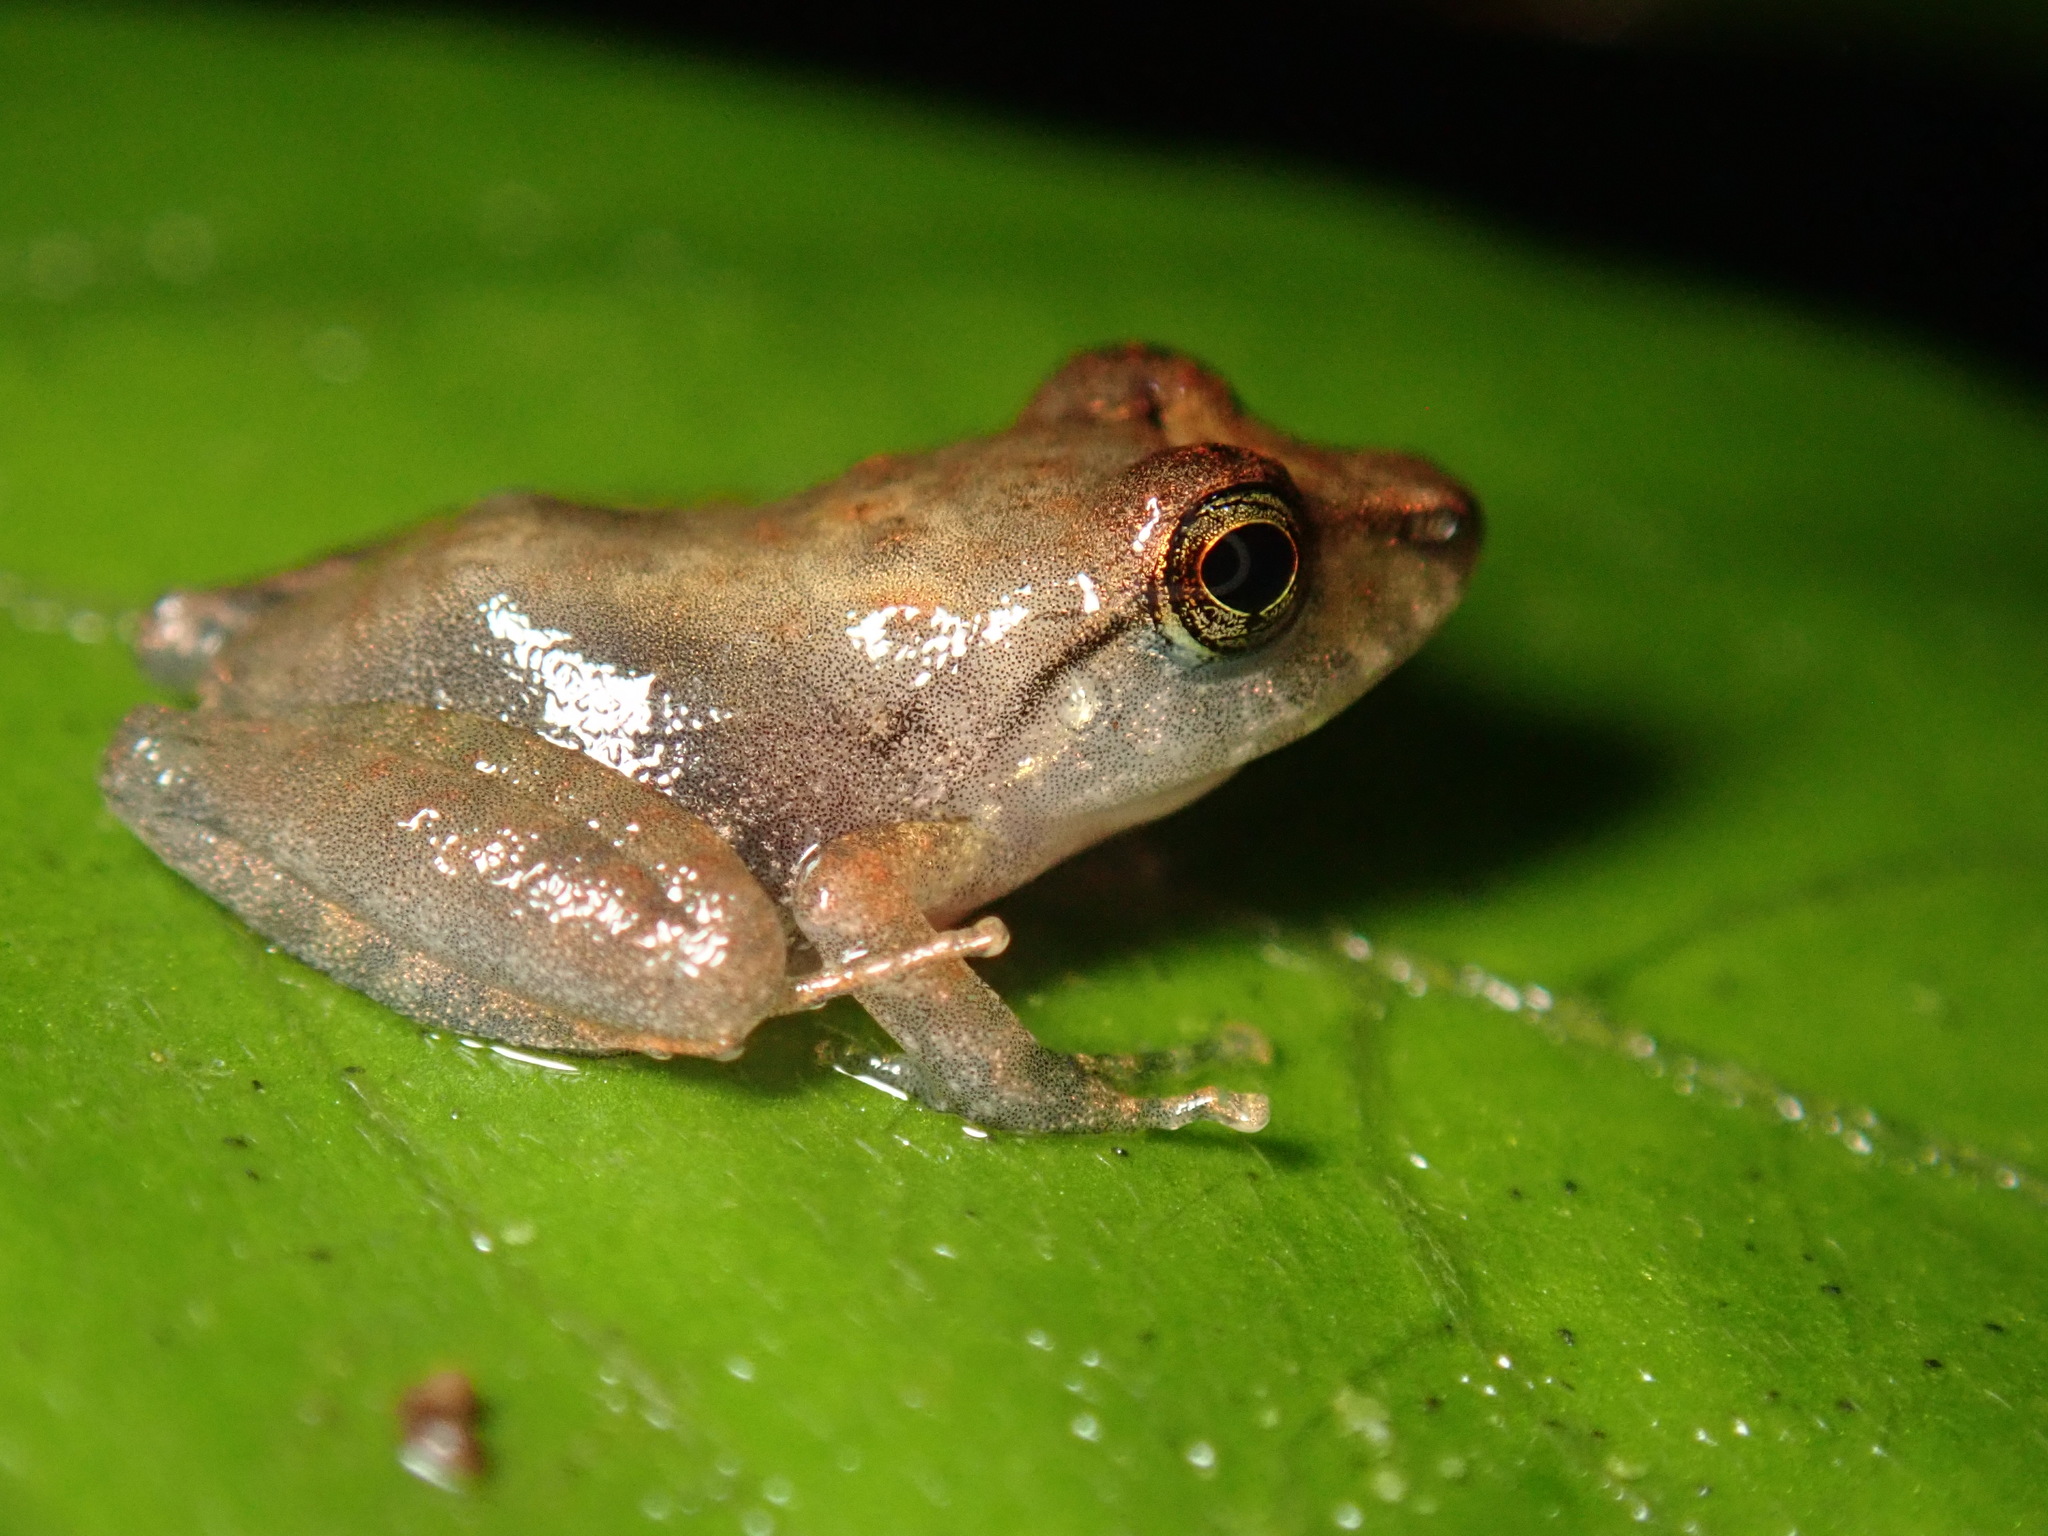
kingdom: Animalia
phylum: Chordata
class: Amphibia
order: Anura
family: Craugastoridae
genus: Pristimantis
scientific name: Pristimantis ridens
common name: Rio san juan robber frog
